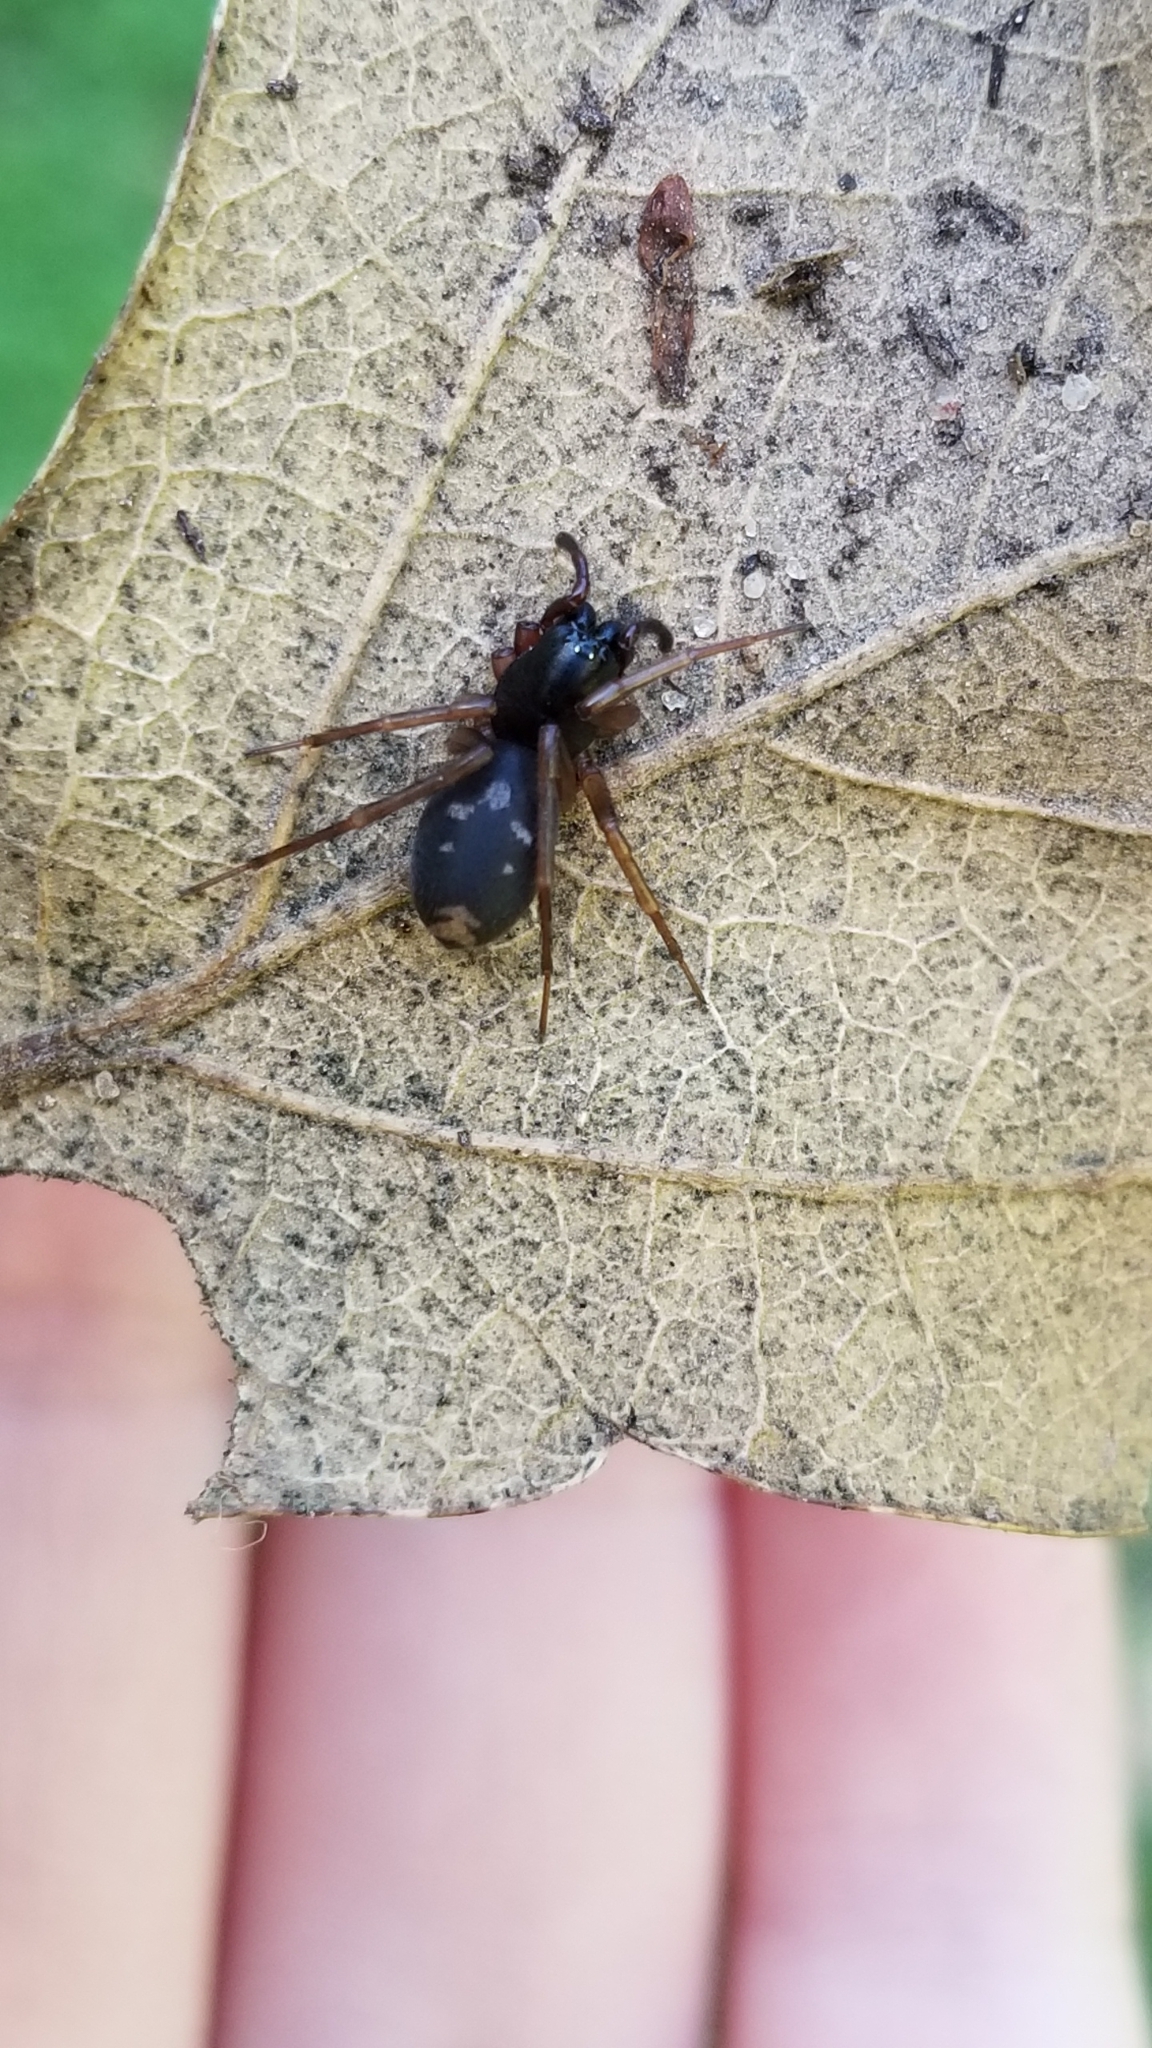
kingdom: Animalia
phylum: Arthropoda
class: Arachnida
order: Araneae
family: Corinnidae
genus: Falconina
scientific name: Falconina gracilis
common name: Antmimic spider
